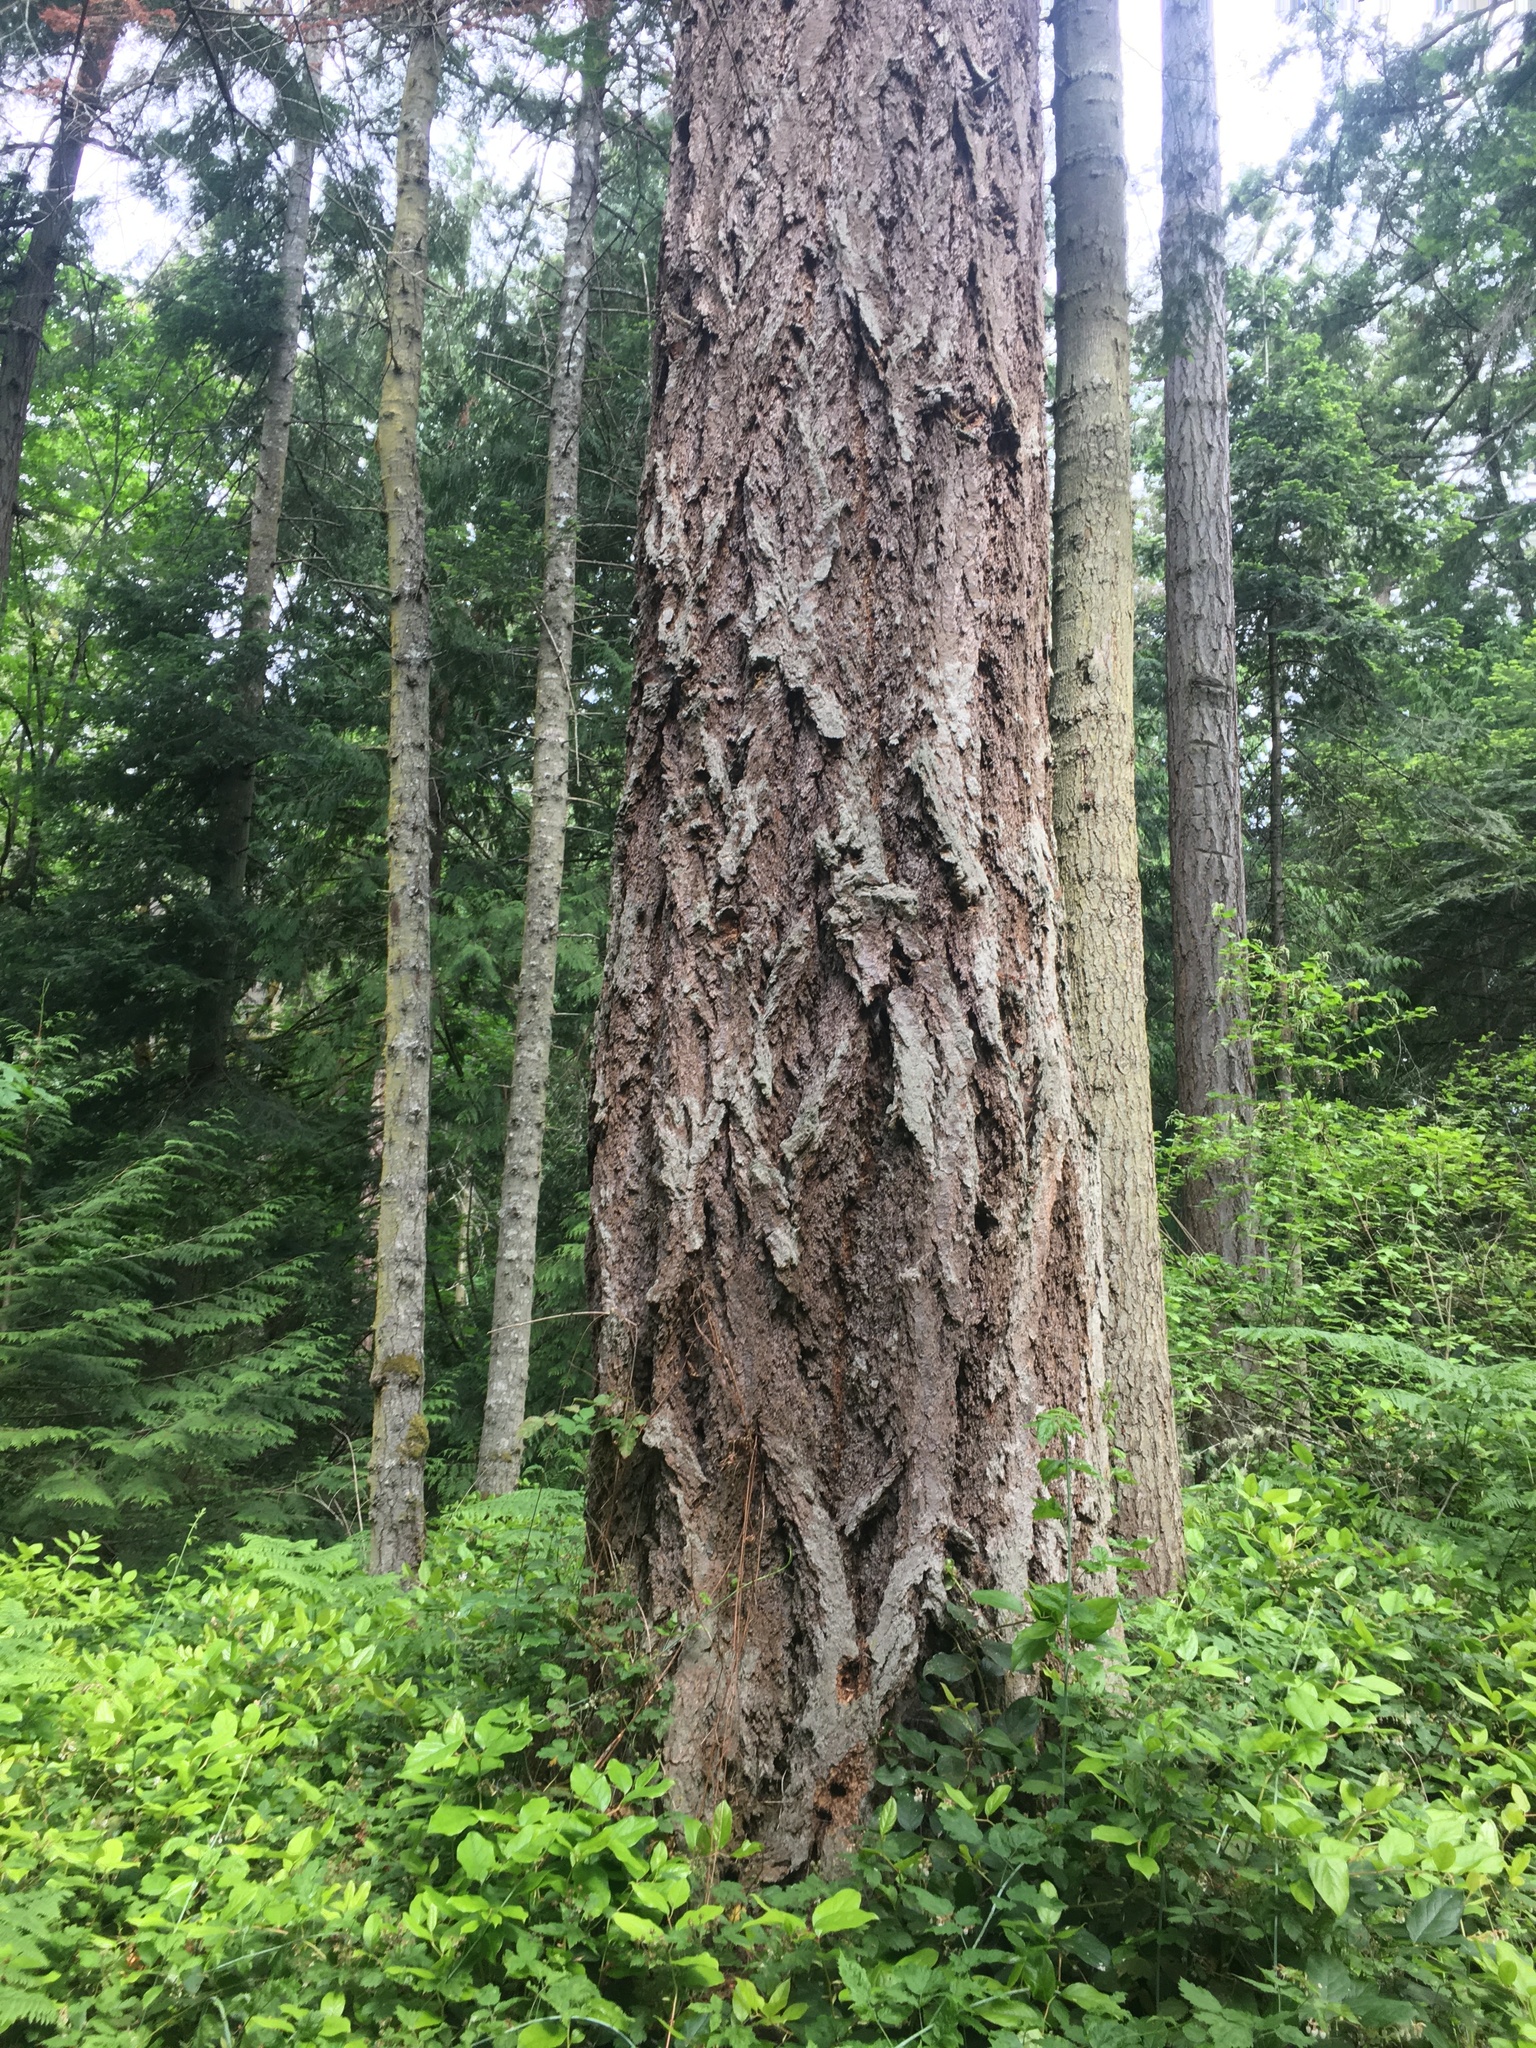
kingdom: Plantae
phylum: Tracheophyta
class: Pinopsida
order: Pinales
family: Pinaceae
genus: Pseudotsuga
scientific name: Pseudotsuga menziesii
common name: Douglas fir
